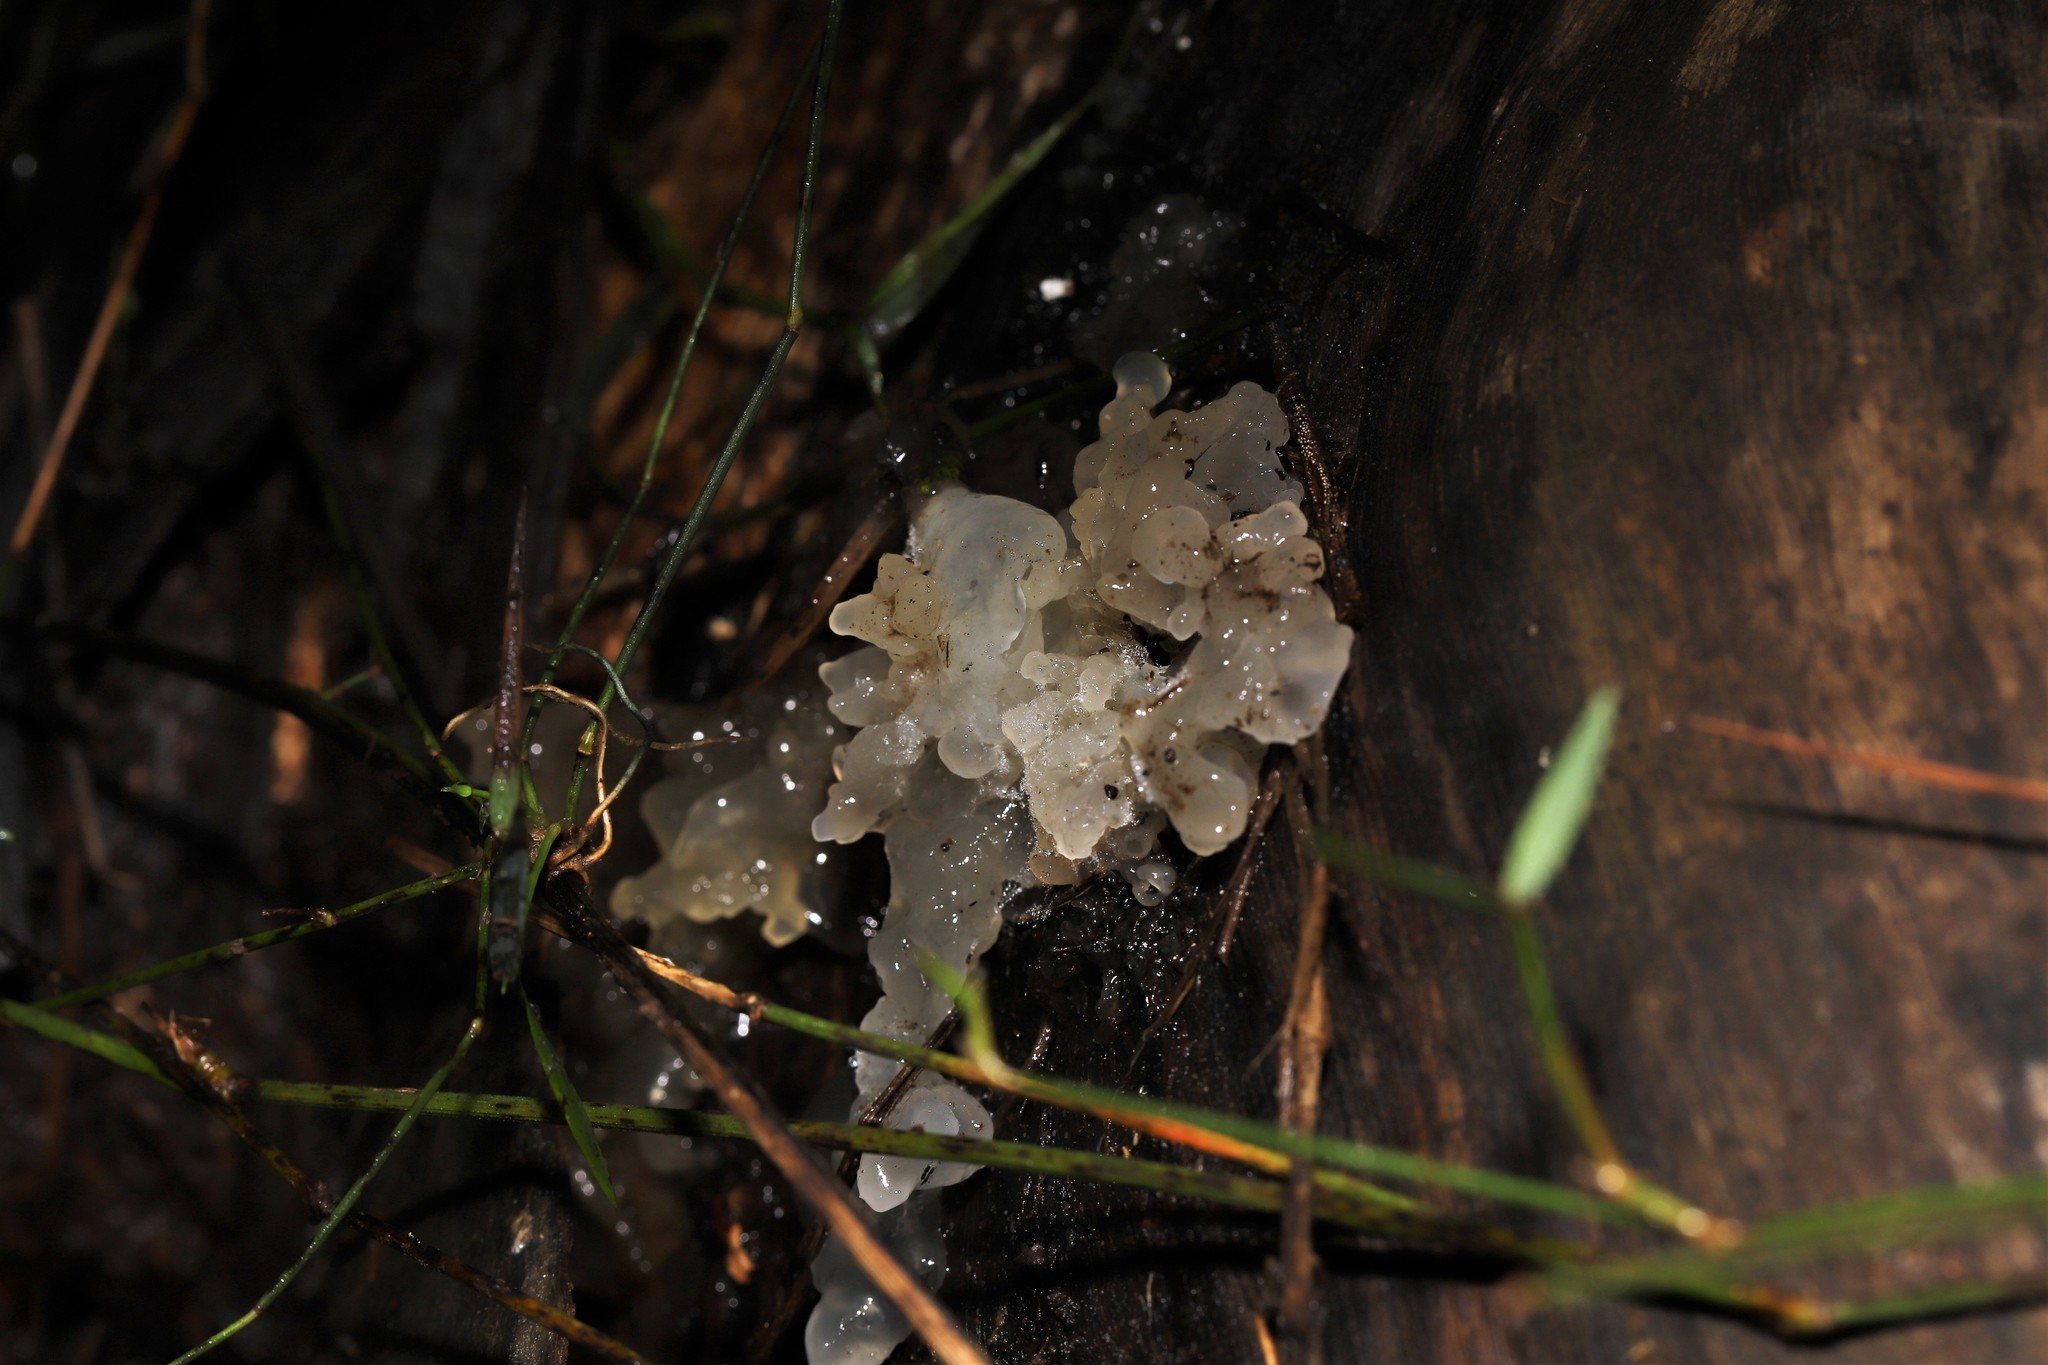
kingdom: Fungi
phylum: Basidiomycota
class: Tremellomycetes
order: Tremellales
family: Tremellaceae
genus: Tremella
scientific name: Tremella fuciformis
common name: Snow fungus
